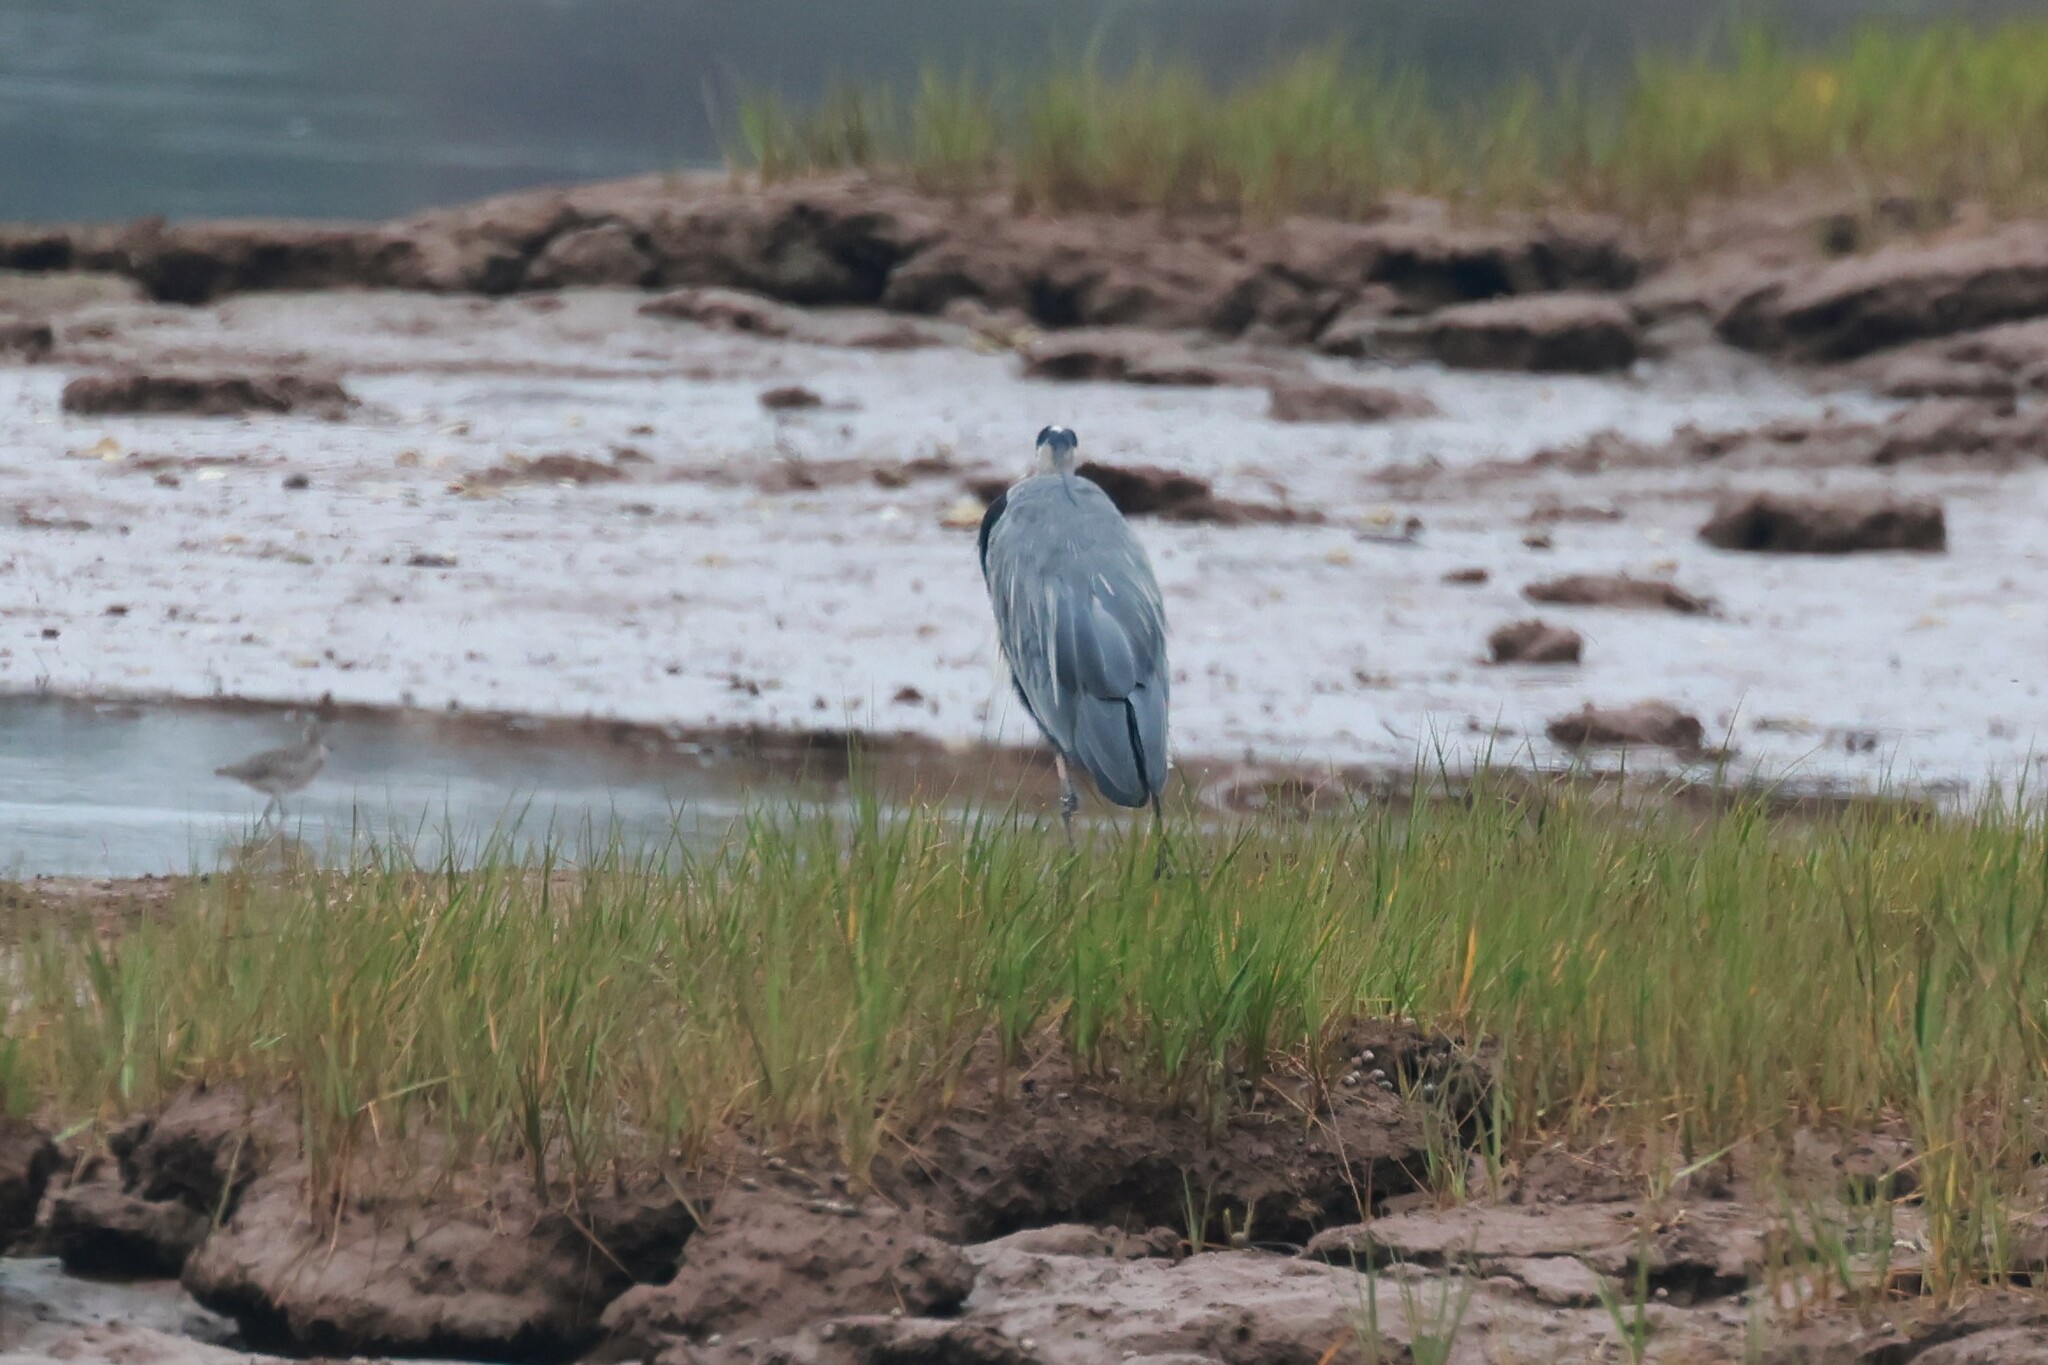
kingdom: Animalia
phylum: Chordata
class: Aves
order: Pelecaniformes
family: Ardeidae
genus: Ardea
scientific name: Ardea herodias
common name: Great blue heron
